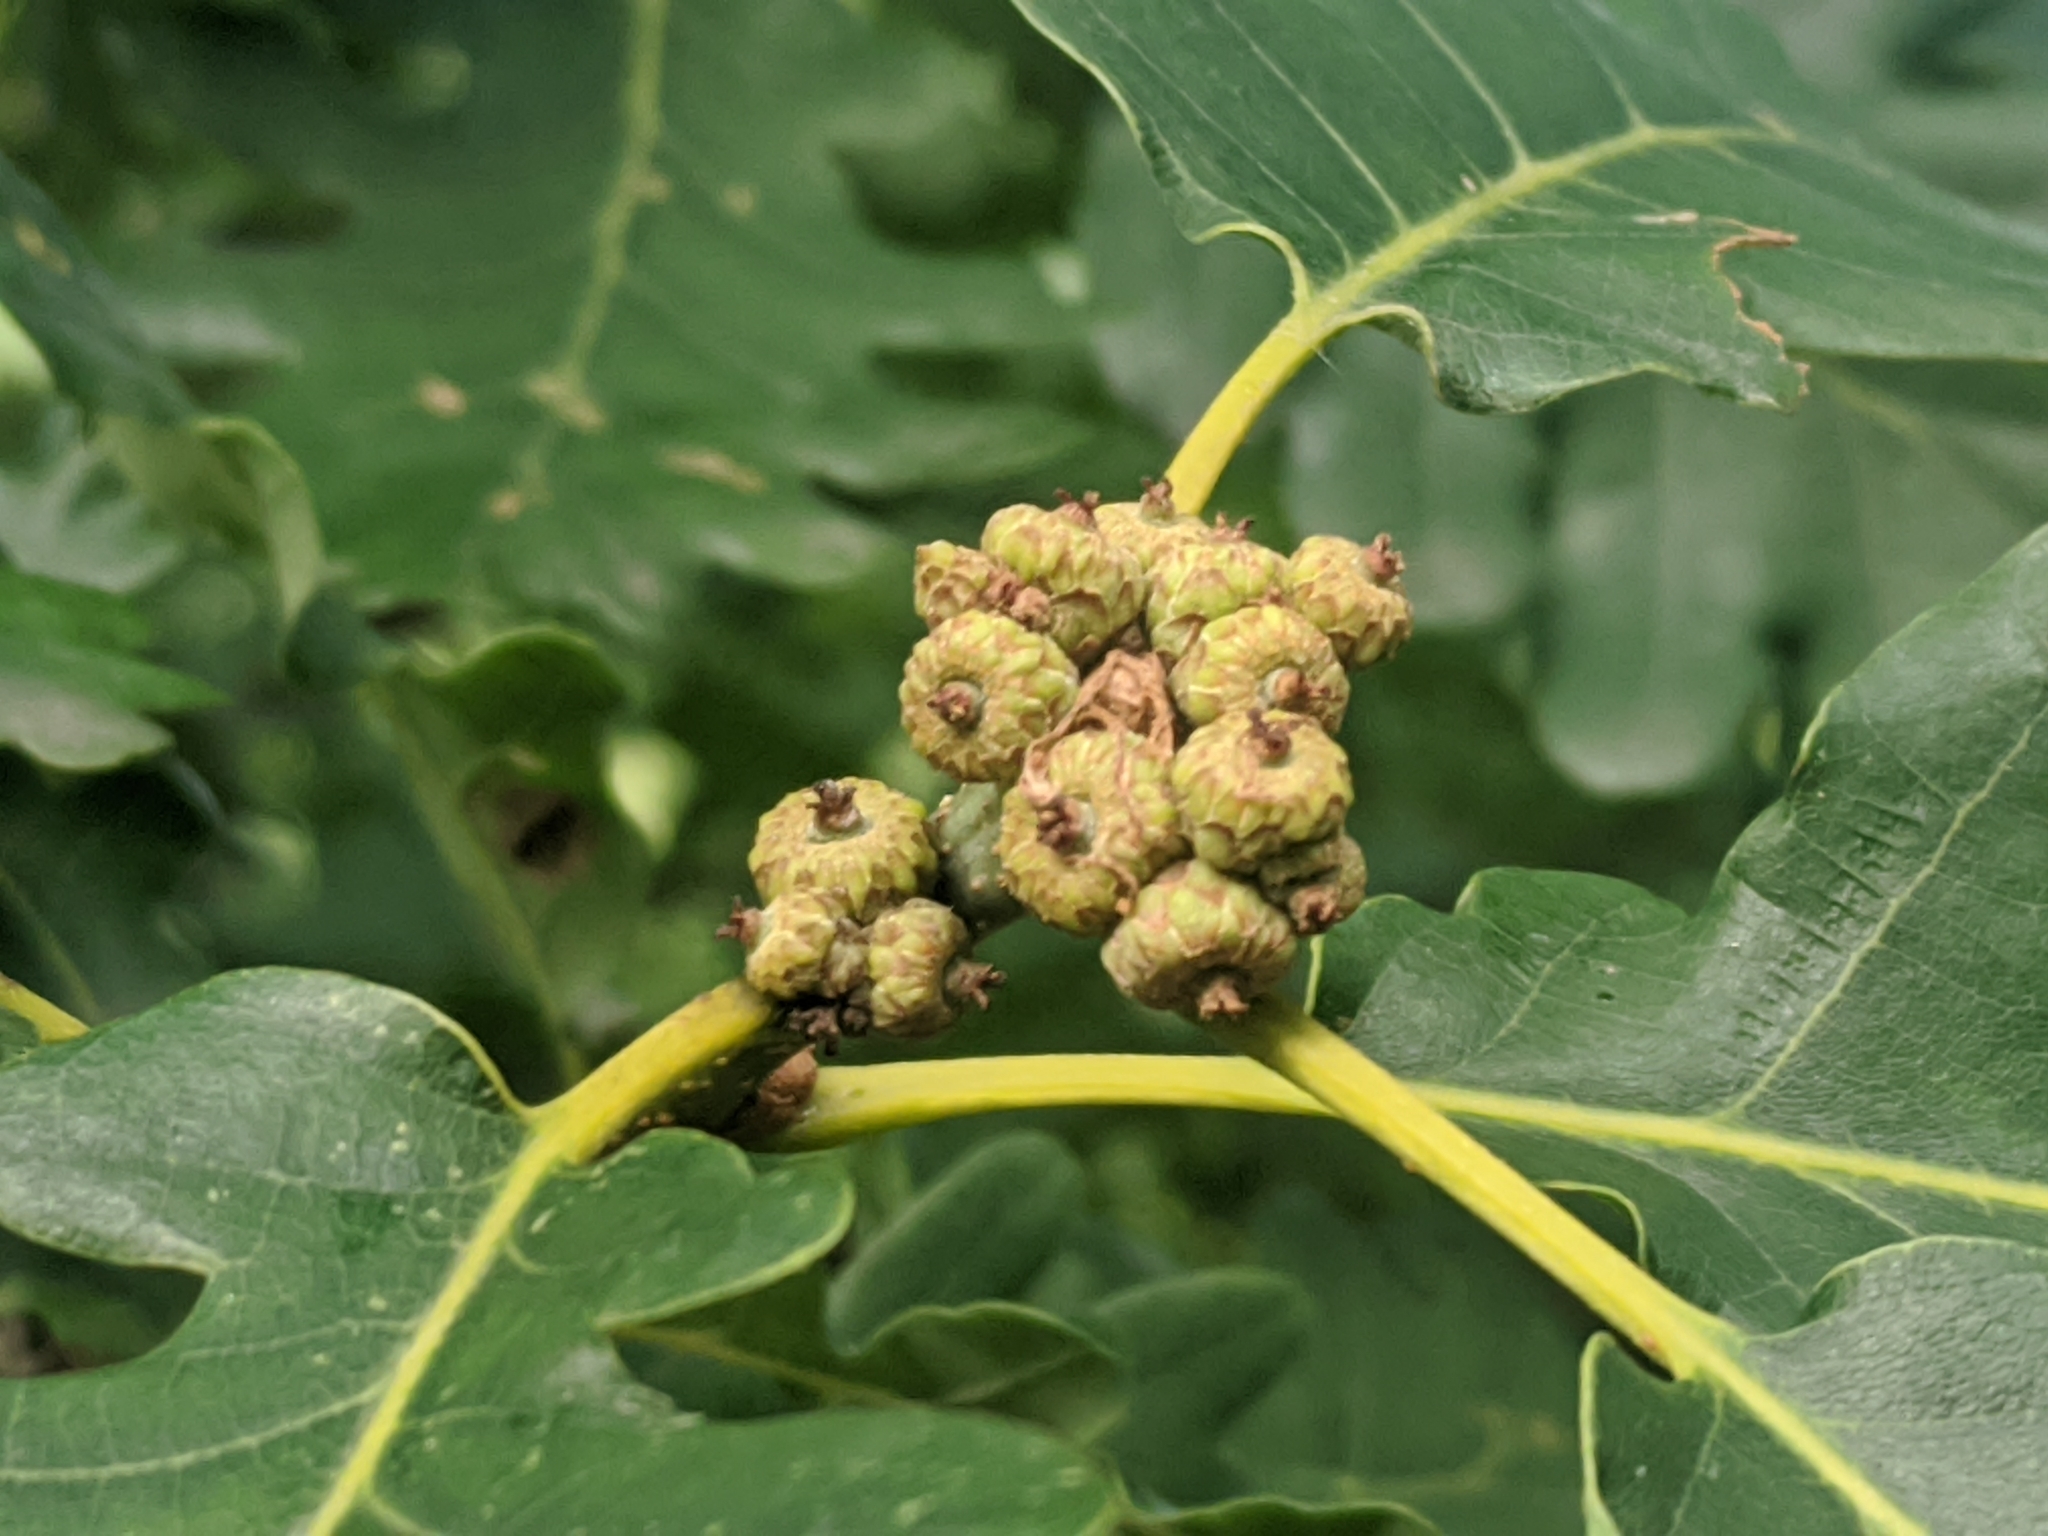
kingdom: Plantae
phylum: Tracheophyta
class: Magnoliopsida
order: Fagales
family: Fagaceae
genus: Quercus
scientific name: Quercus robur
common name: Pedunculate oak
